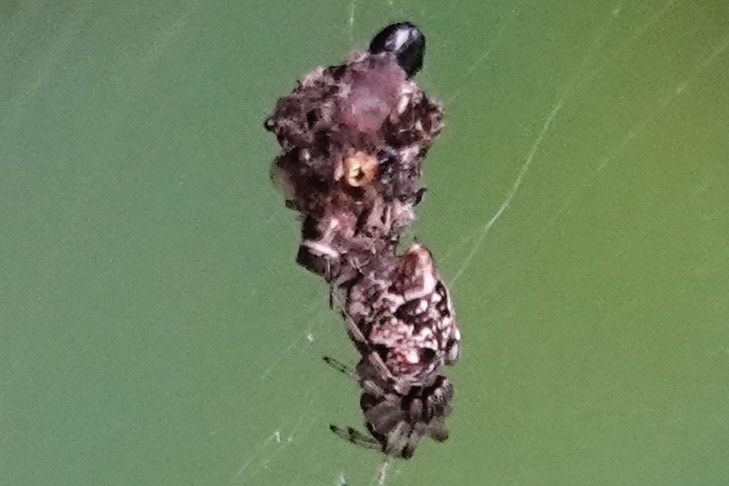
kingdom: Animalia
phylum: Arthropoda
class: Arachnida
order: Araneae
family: Araneidae
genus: Cyclosa
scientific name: Cyclosa turbinata
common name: Orb weavers
